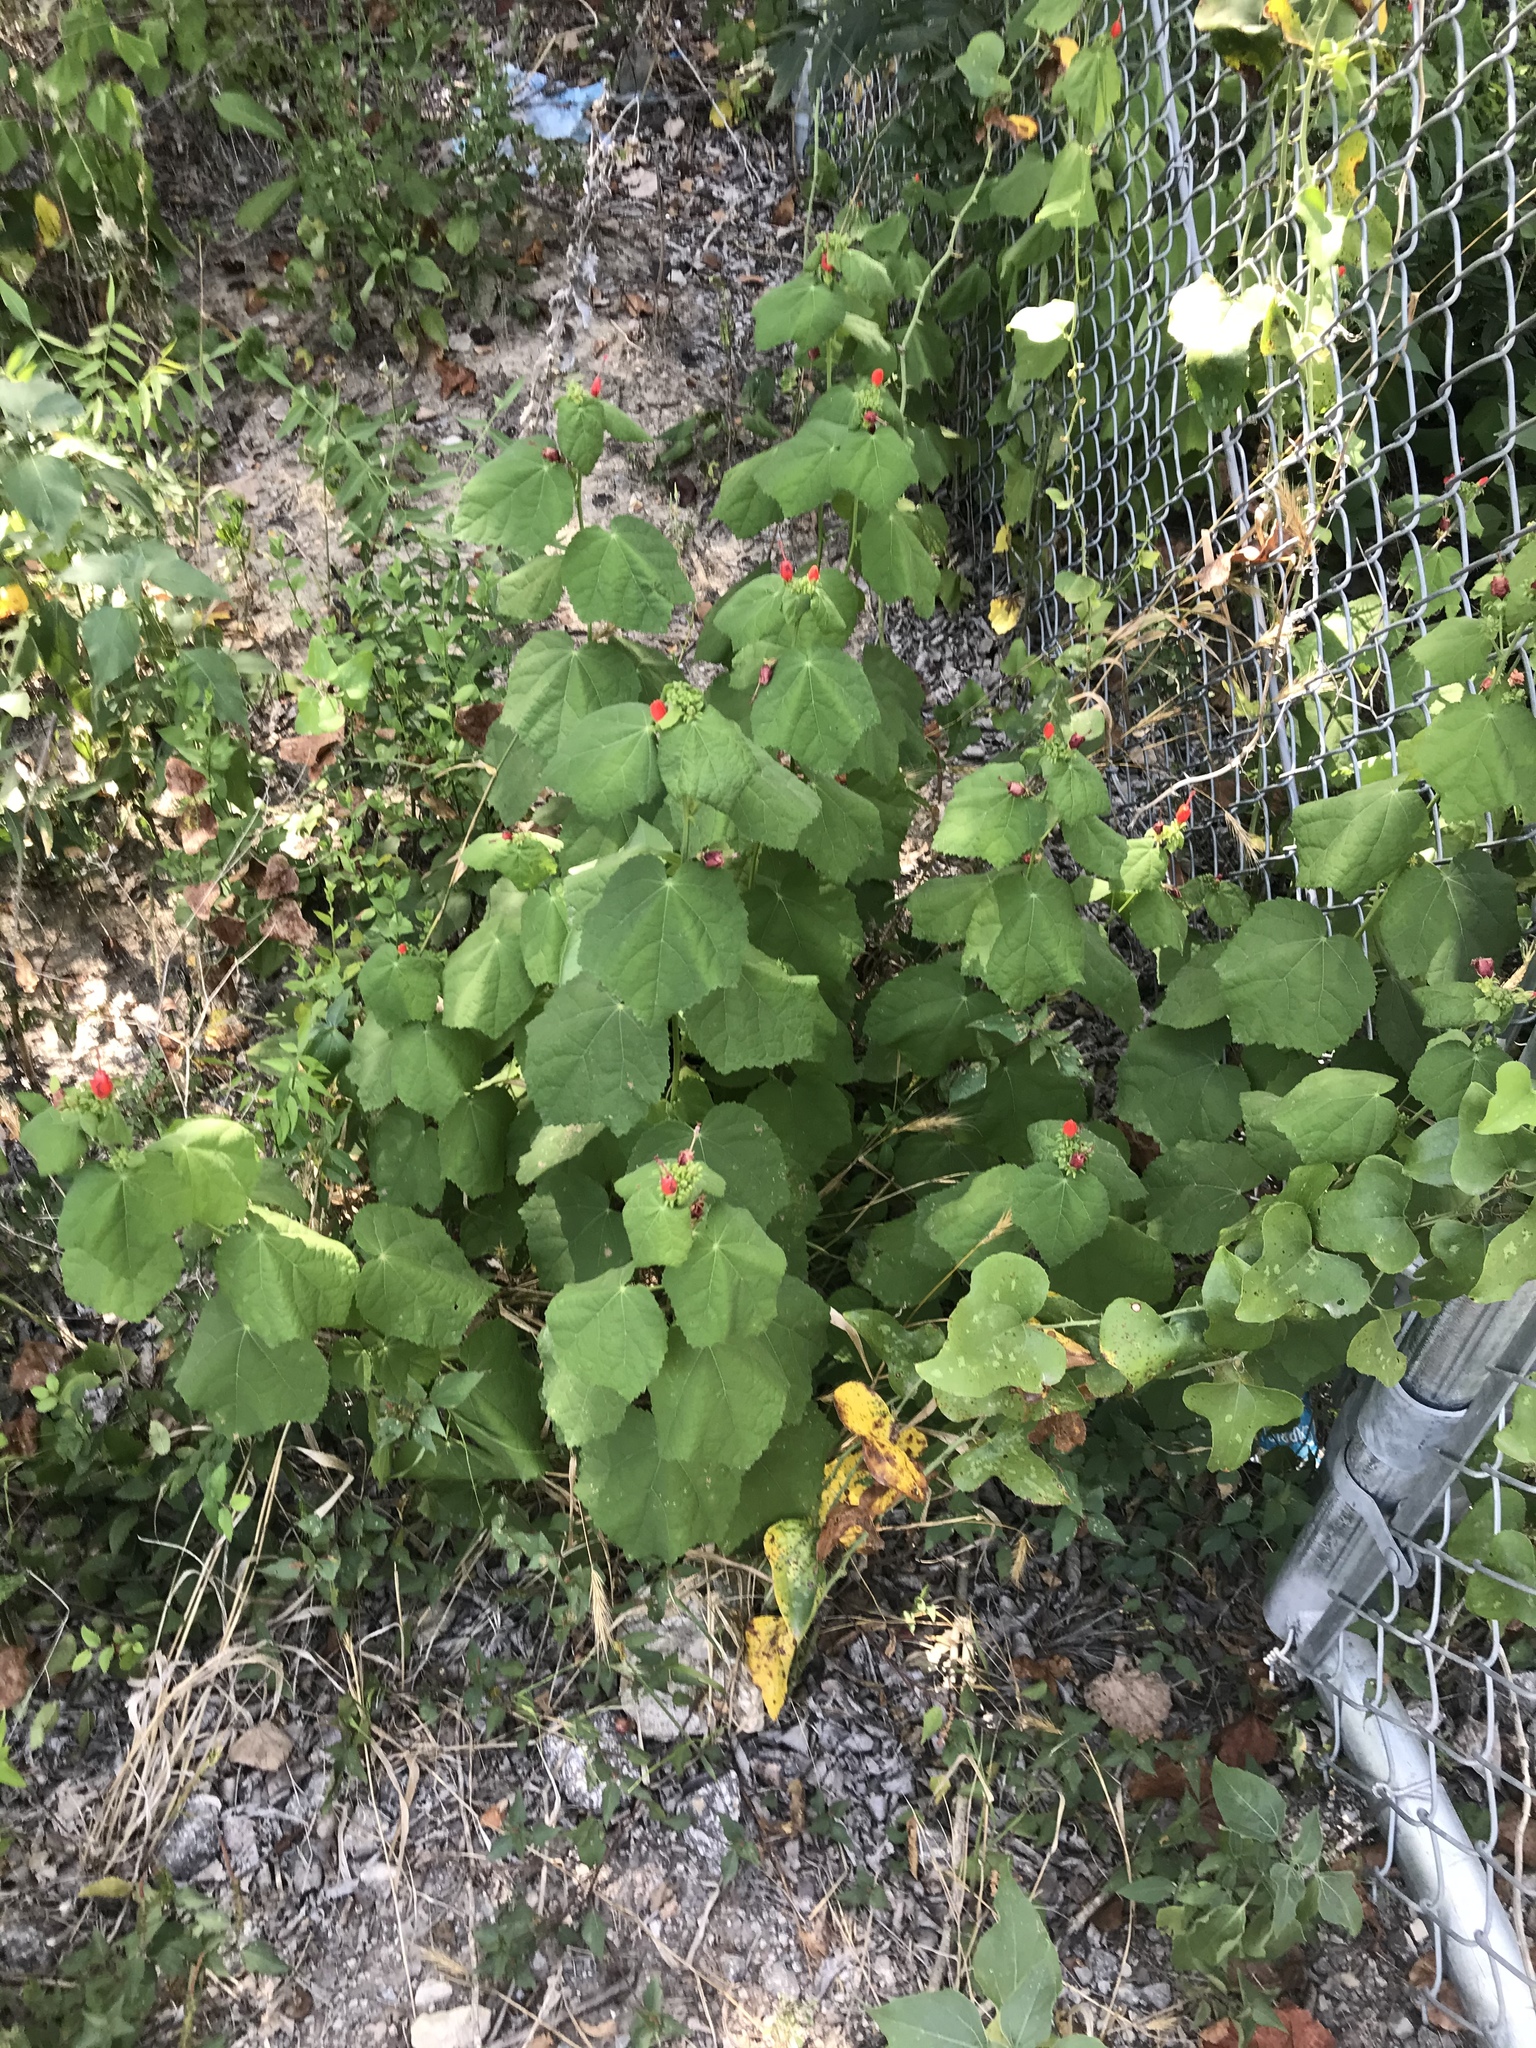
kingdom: Plantae
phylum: Tracheophyta
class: Magnoliopsida
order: Malvales
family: Malvaceae
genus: Malvaviscus
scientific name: Malvaviscus arboreus
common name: Wax mallow
